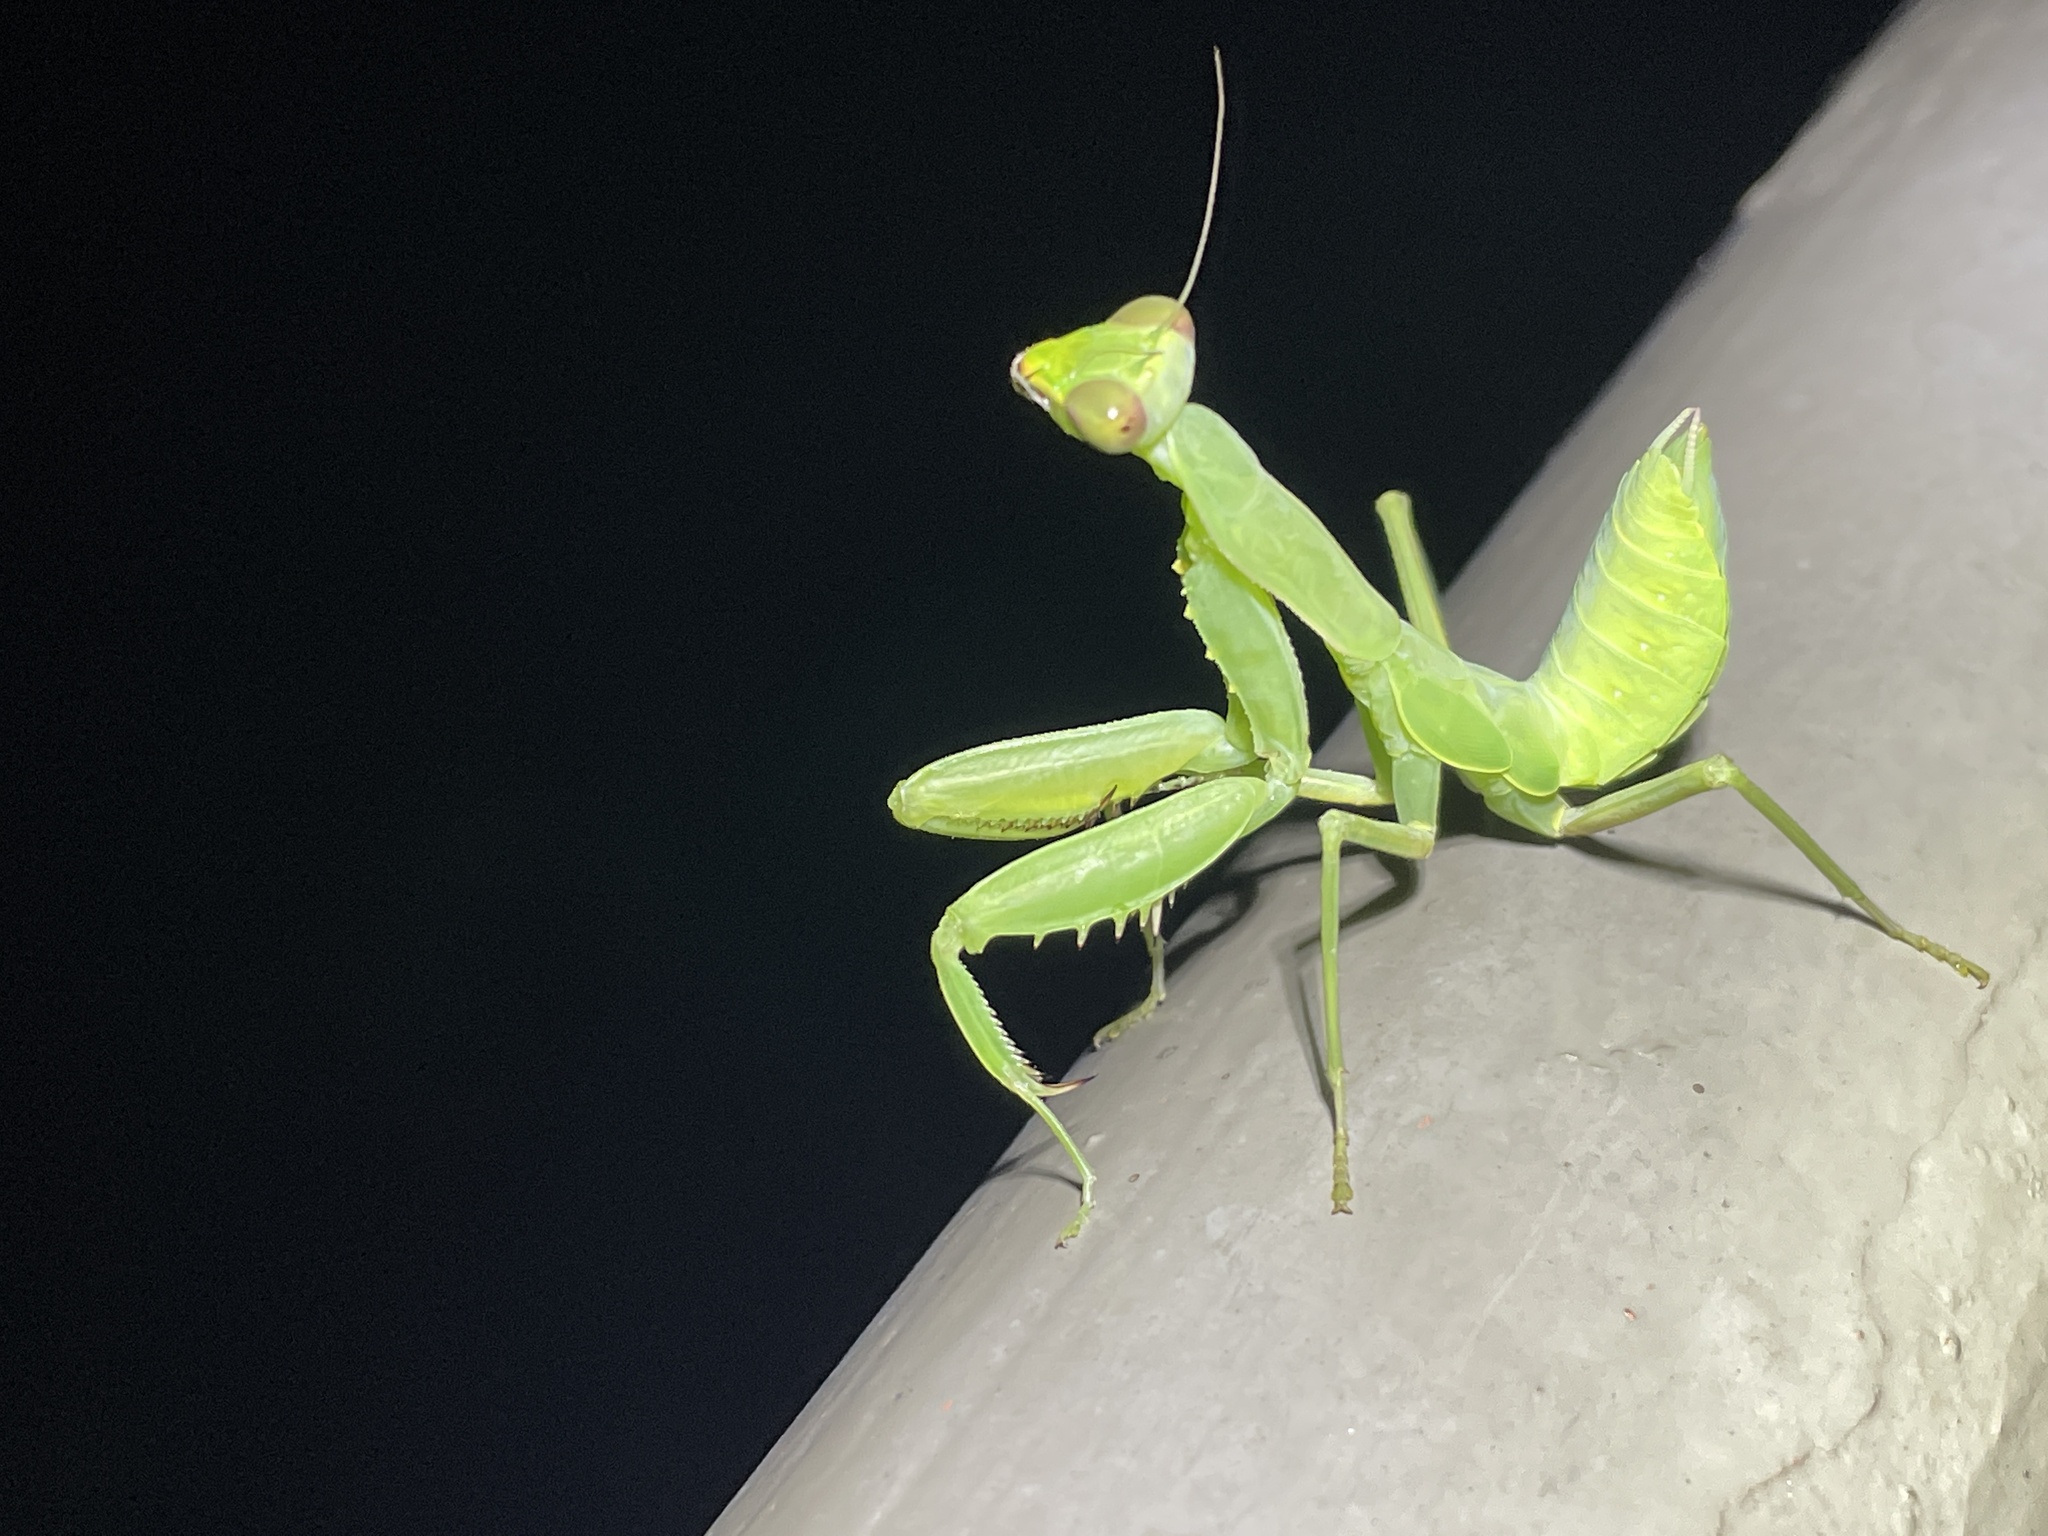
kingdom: Animalia
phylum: Arthropoda
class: Insecta
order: Mantodea
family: Mantidae
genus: Hierodula
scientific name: Hierodula patellifera
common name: Asian mantis
